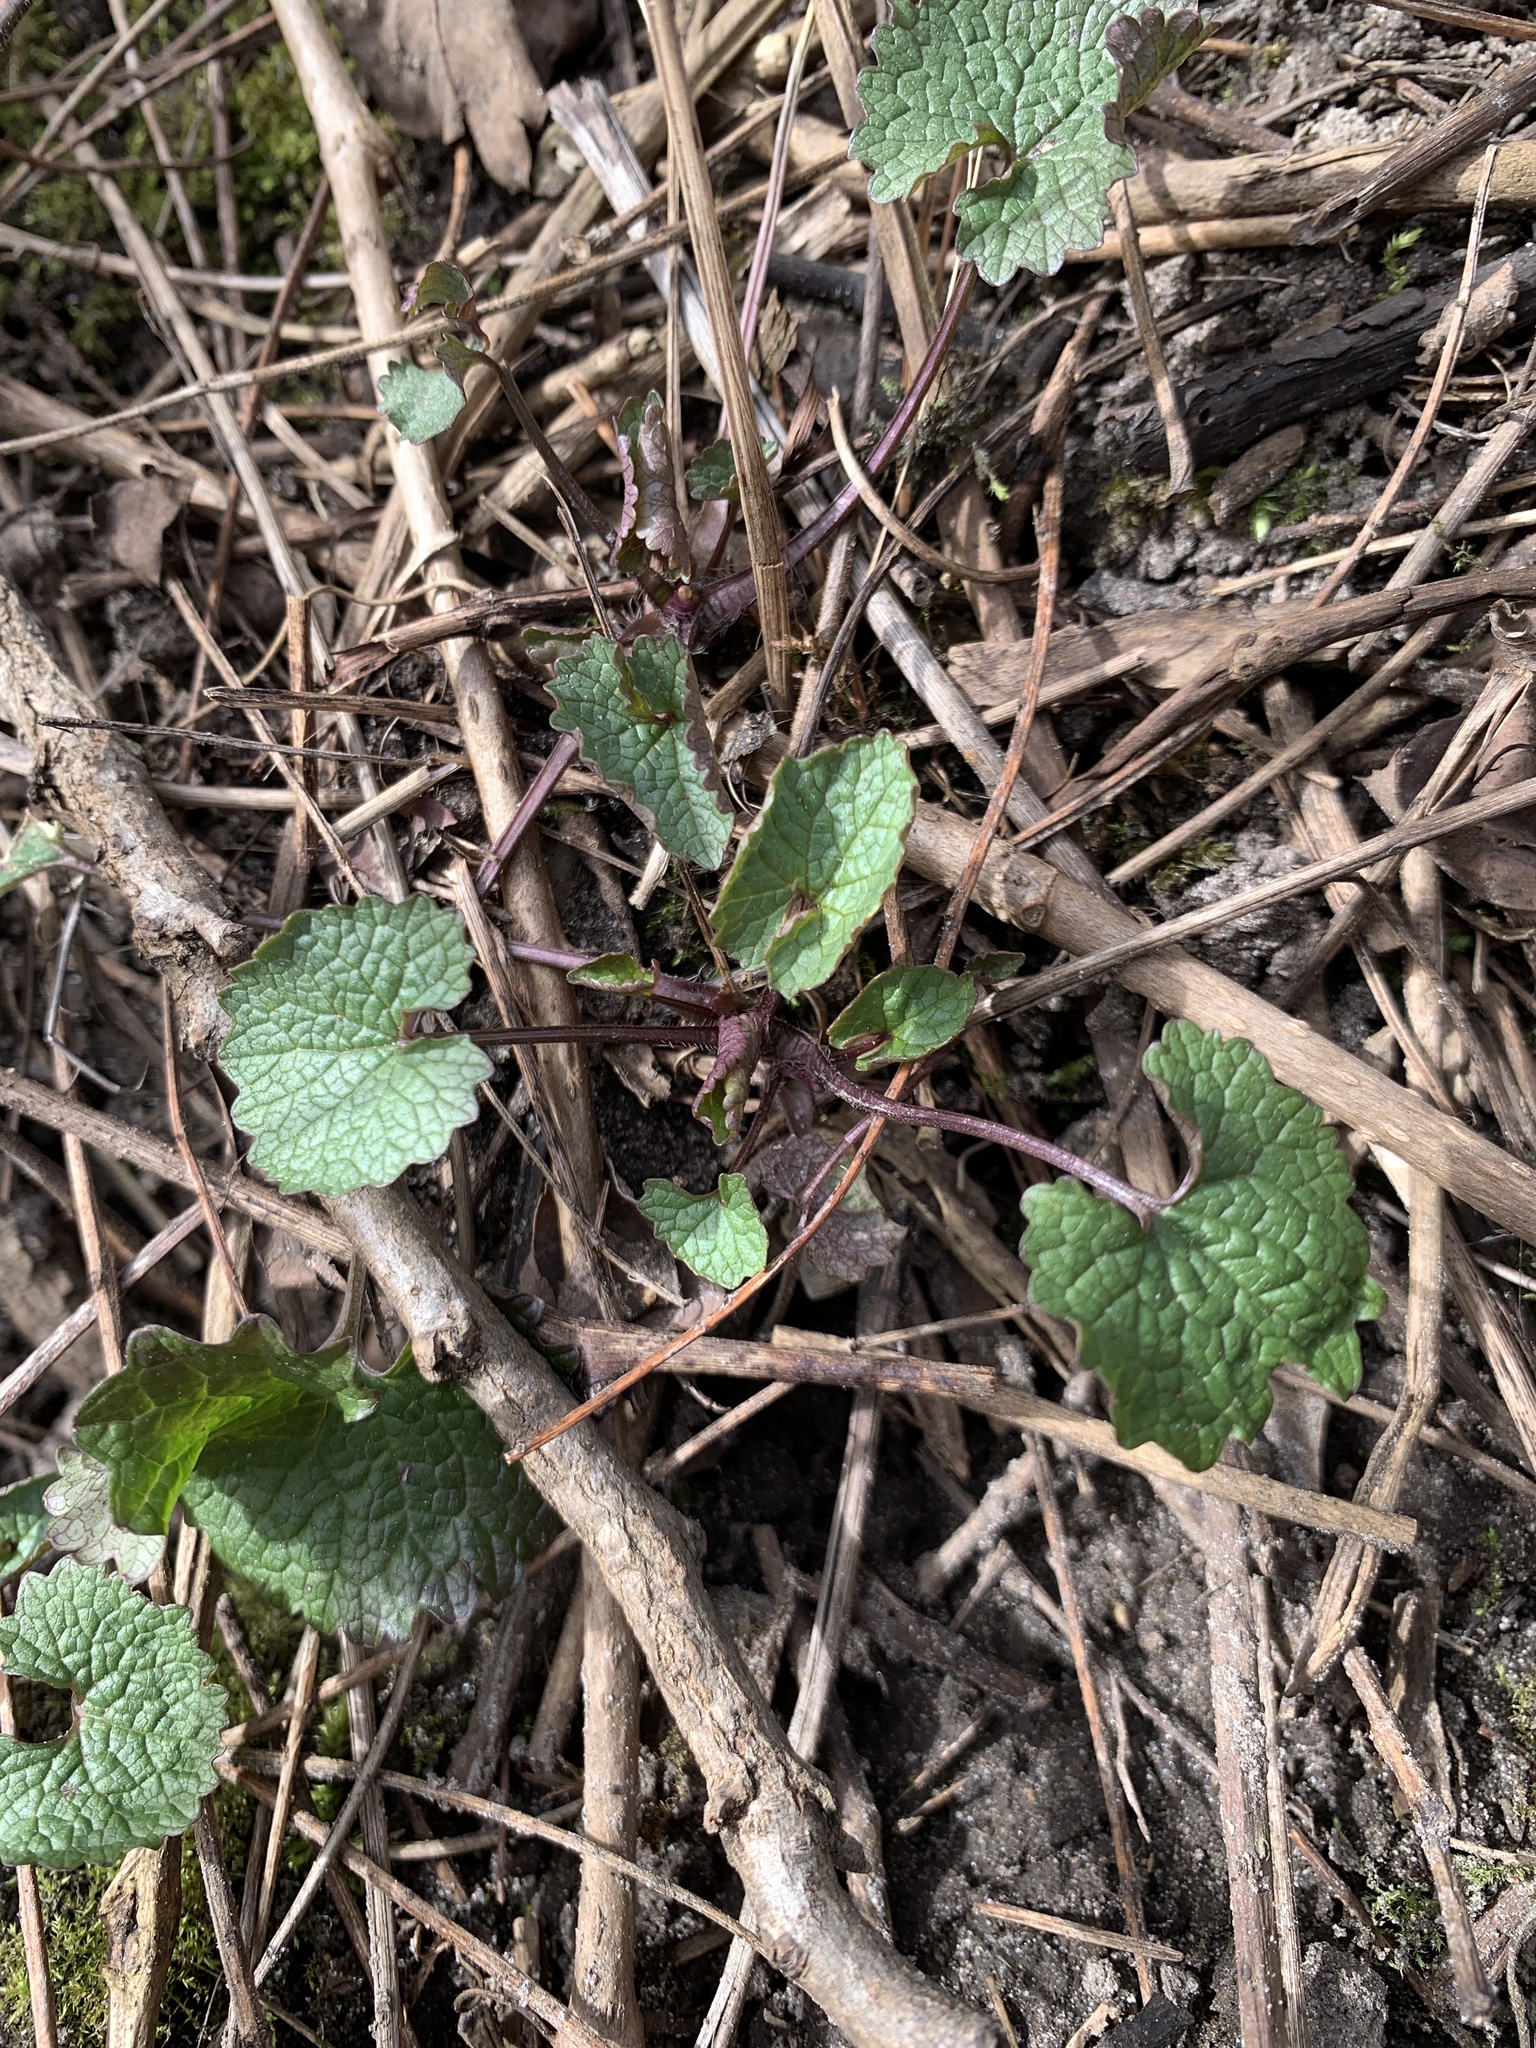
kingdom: Plantae
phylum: Tracheophyta
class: Magnoliopsida
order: Brassicales
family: Brassicaceae
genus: Alliaria
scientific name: Alliaria petiolata
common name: Garlic mustard
